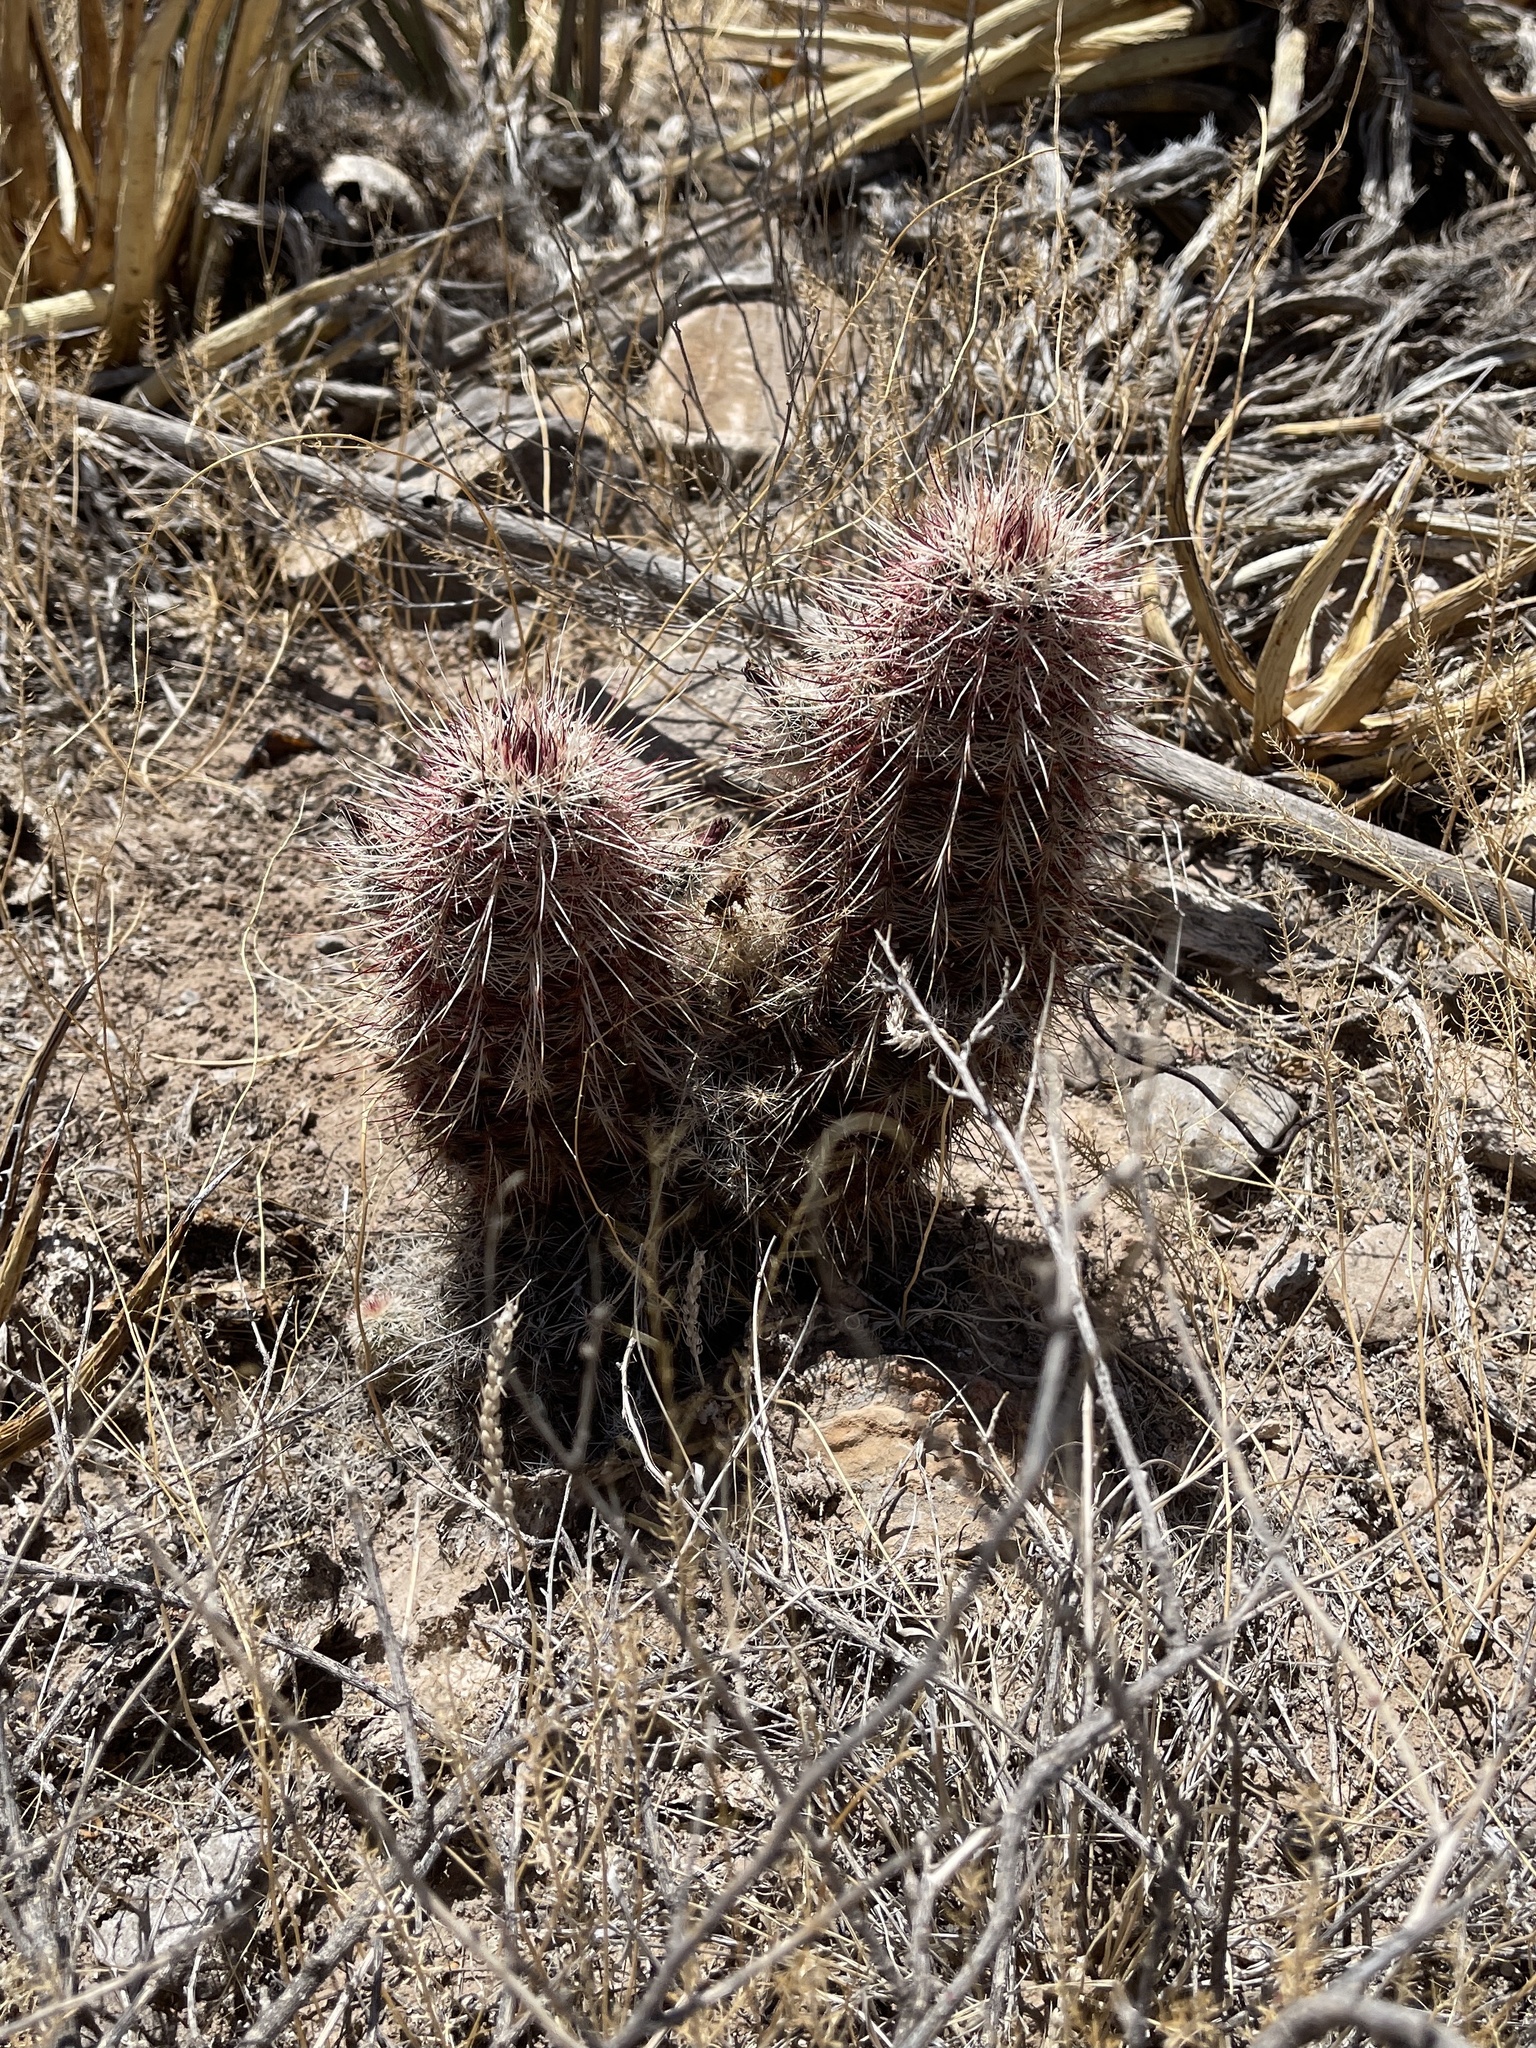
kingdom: Plantae
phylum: Tracheophyta
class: Magnoliopsida
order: Caryophyllales
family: Cactaceae
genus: Echinocereus
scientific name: Echinocereus viridiflorus
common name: Nylon hedgehog cactus
